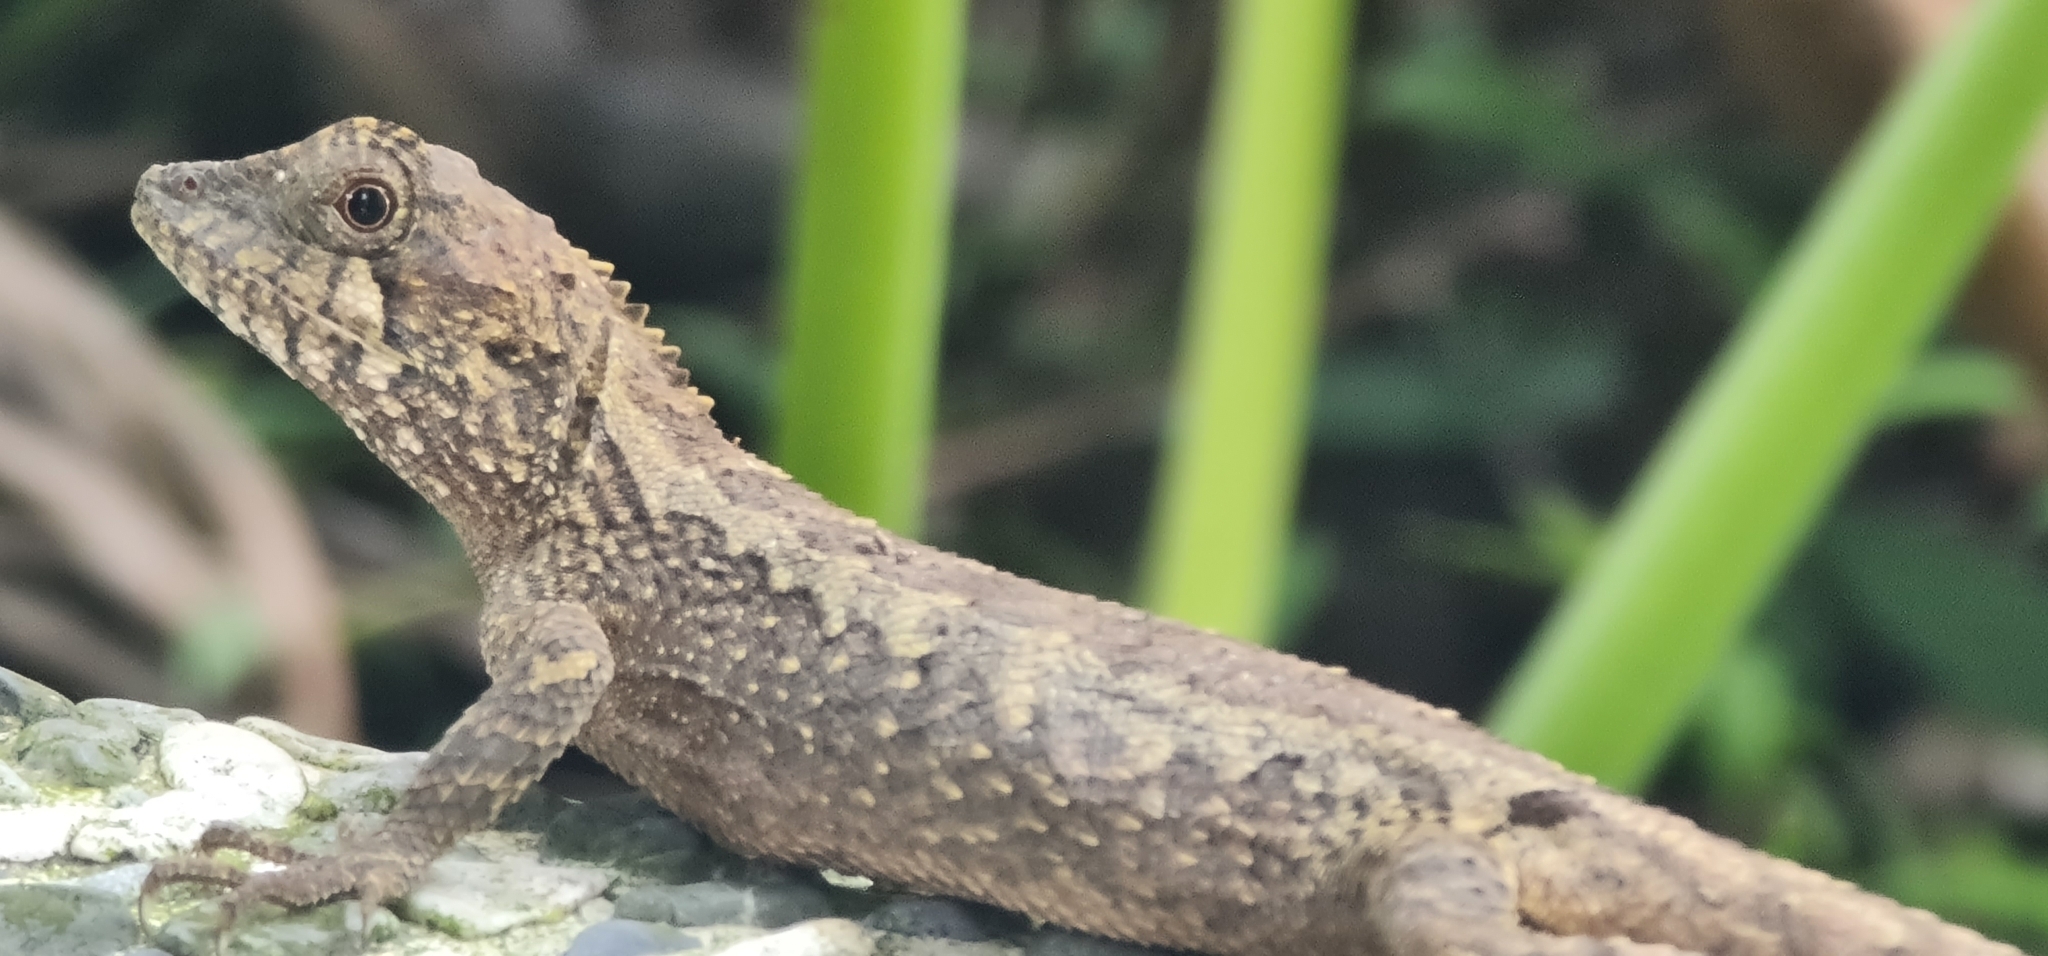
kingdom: Animalia
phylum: Chordata
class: Squamata
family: Agamidae
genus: Diploderma
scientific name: Diploderma swinhonis
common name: Taiwan japalure
